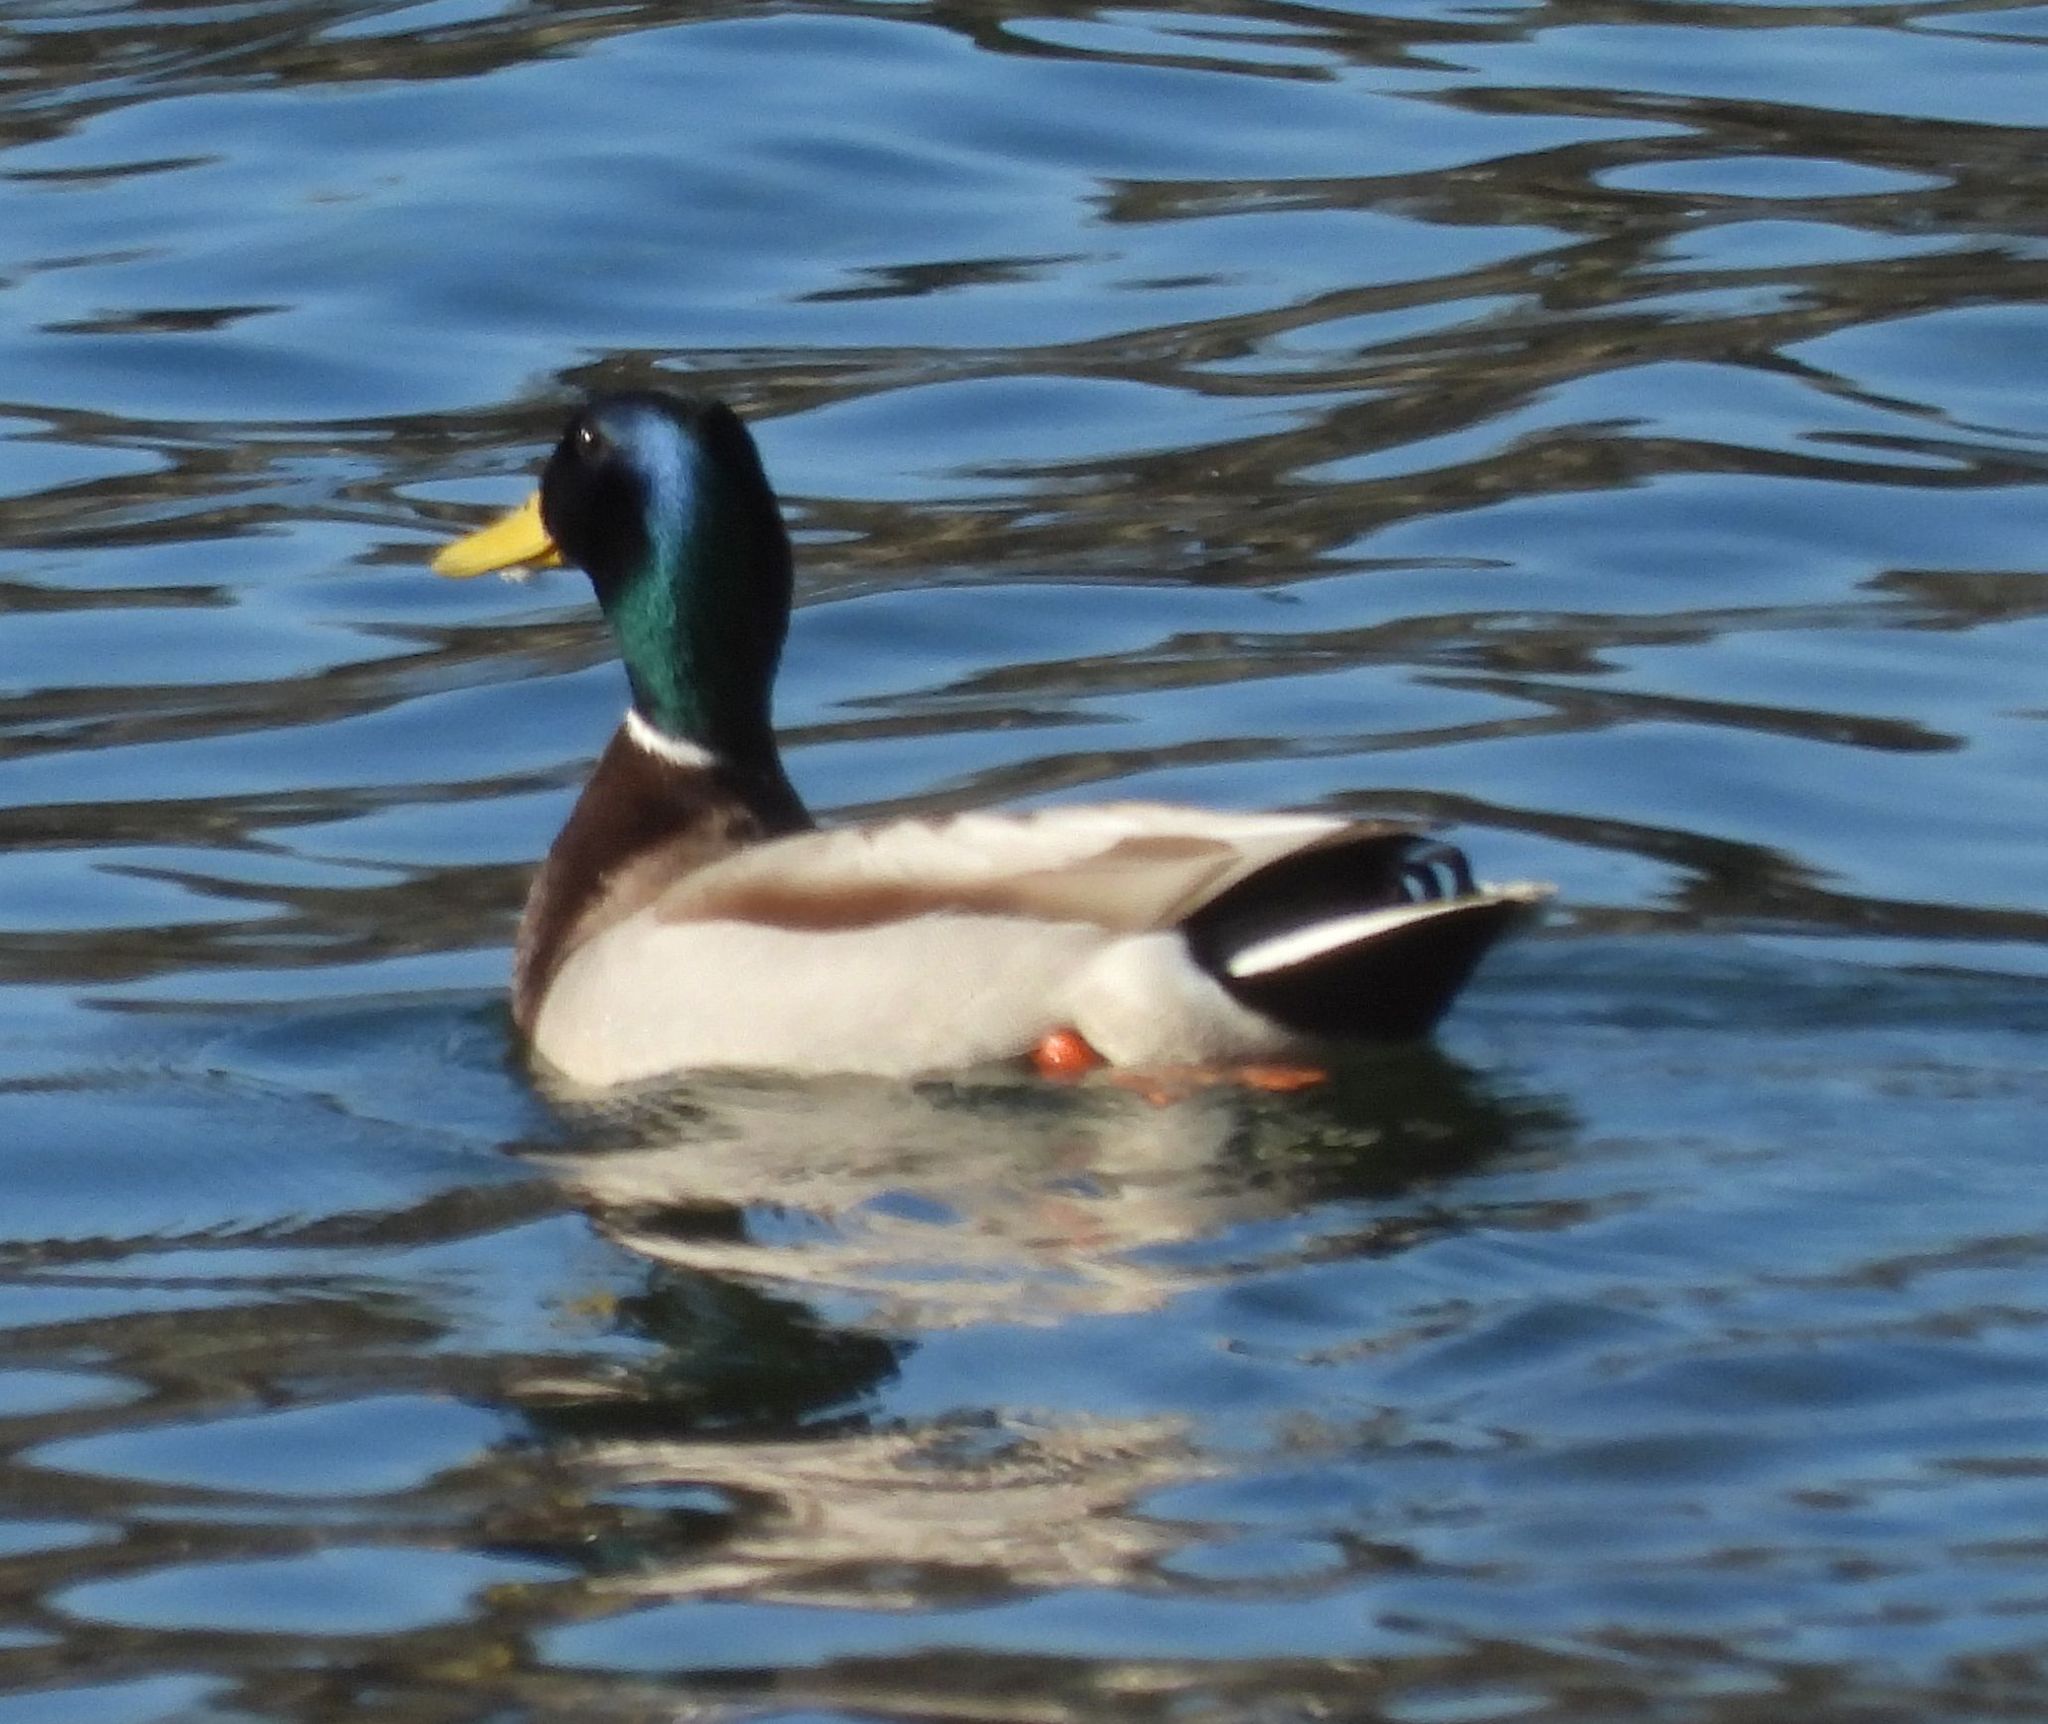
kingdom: Animalia
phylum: Chordata
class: Aves
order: Anseriformes
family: Anatidae
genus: Anas
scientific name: Anas platyrhynchos
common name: Mallard
